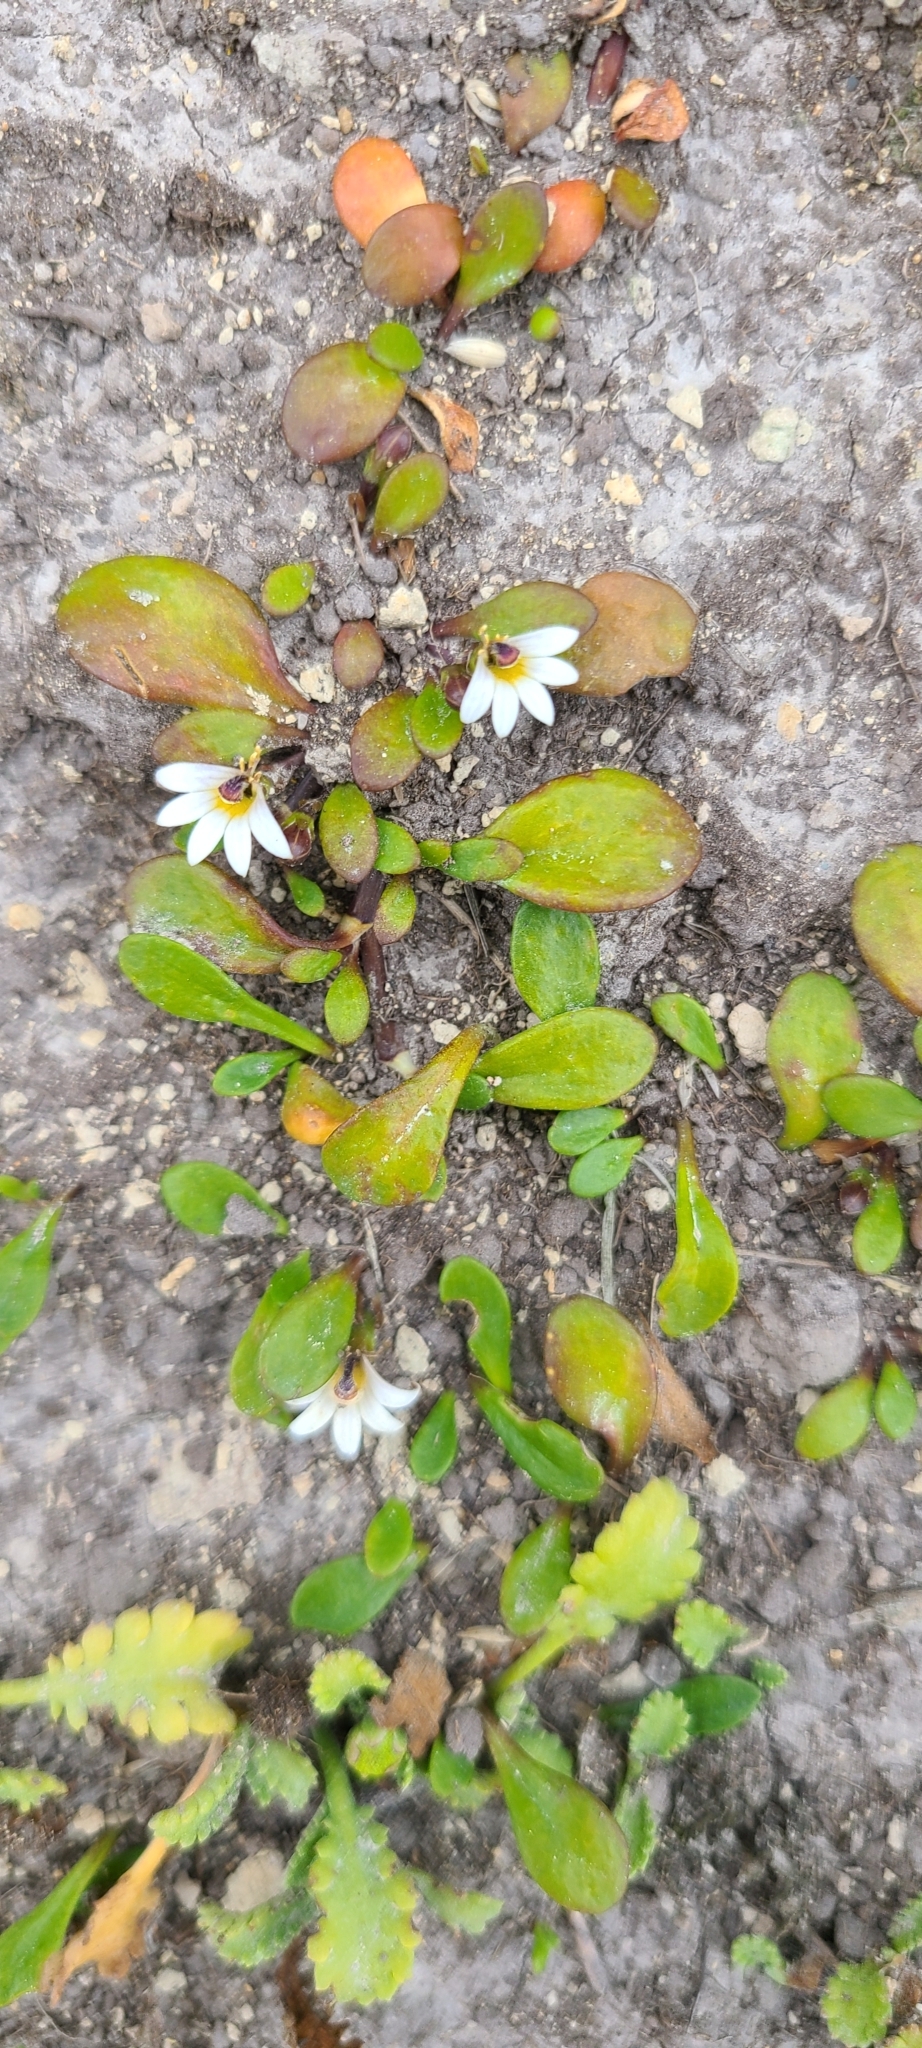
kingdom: Plantae
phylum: Tracheophyta
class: Magnoliopsida
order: Asterales
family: Goodeniaceae
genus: Goodenia
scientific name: Goodenia radicans
